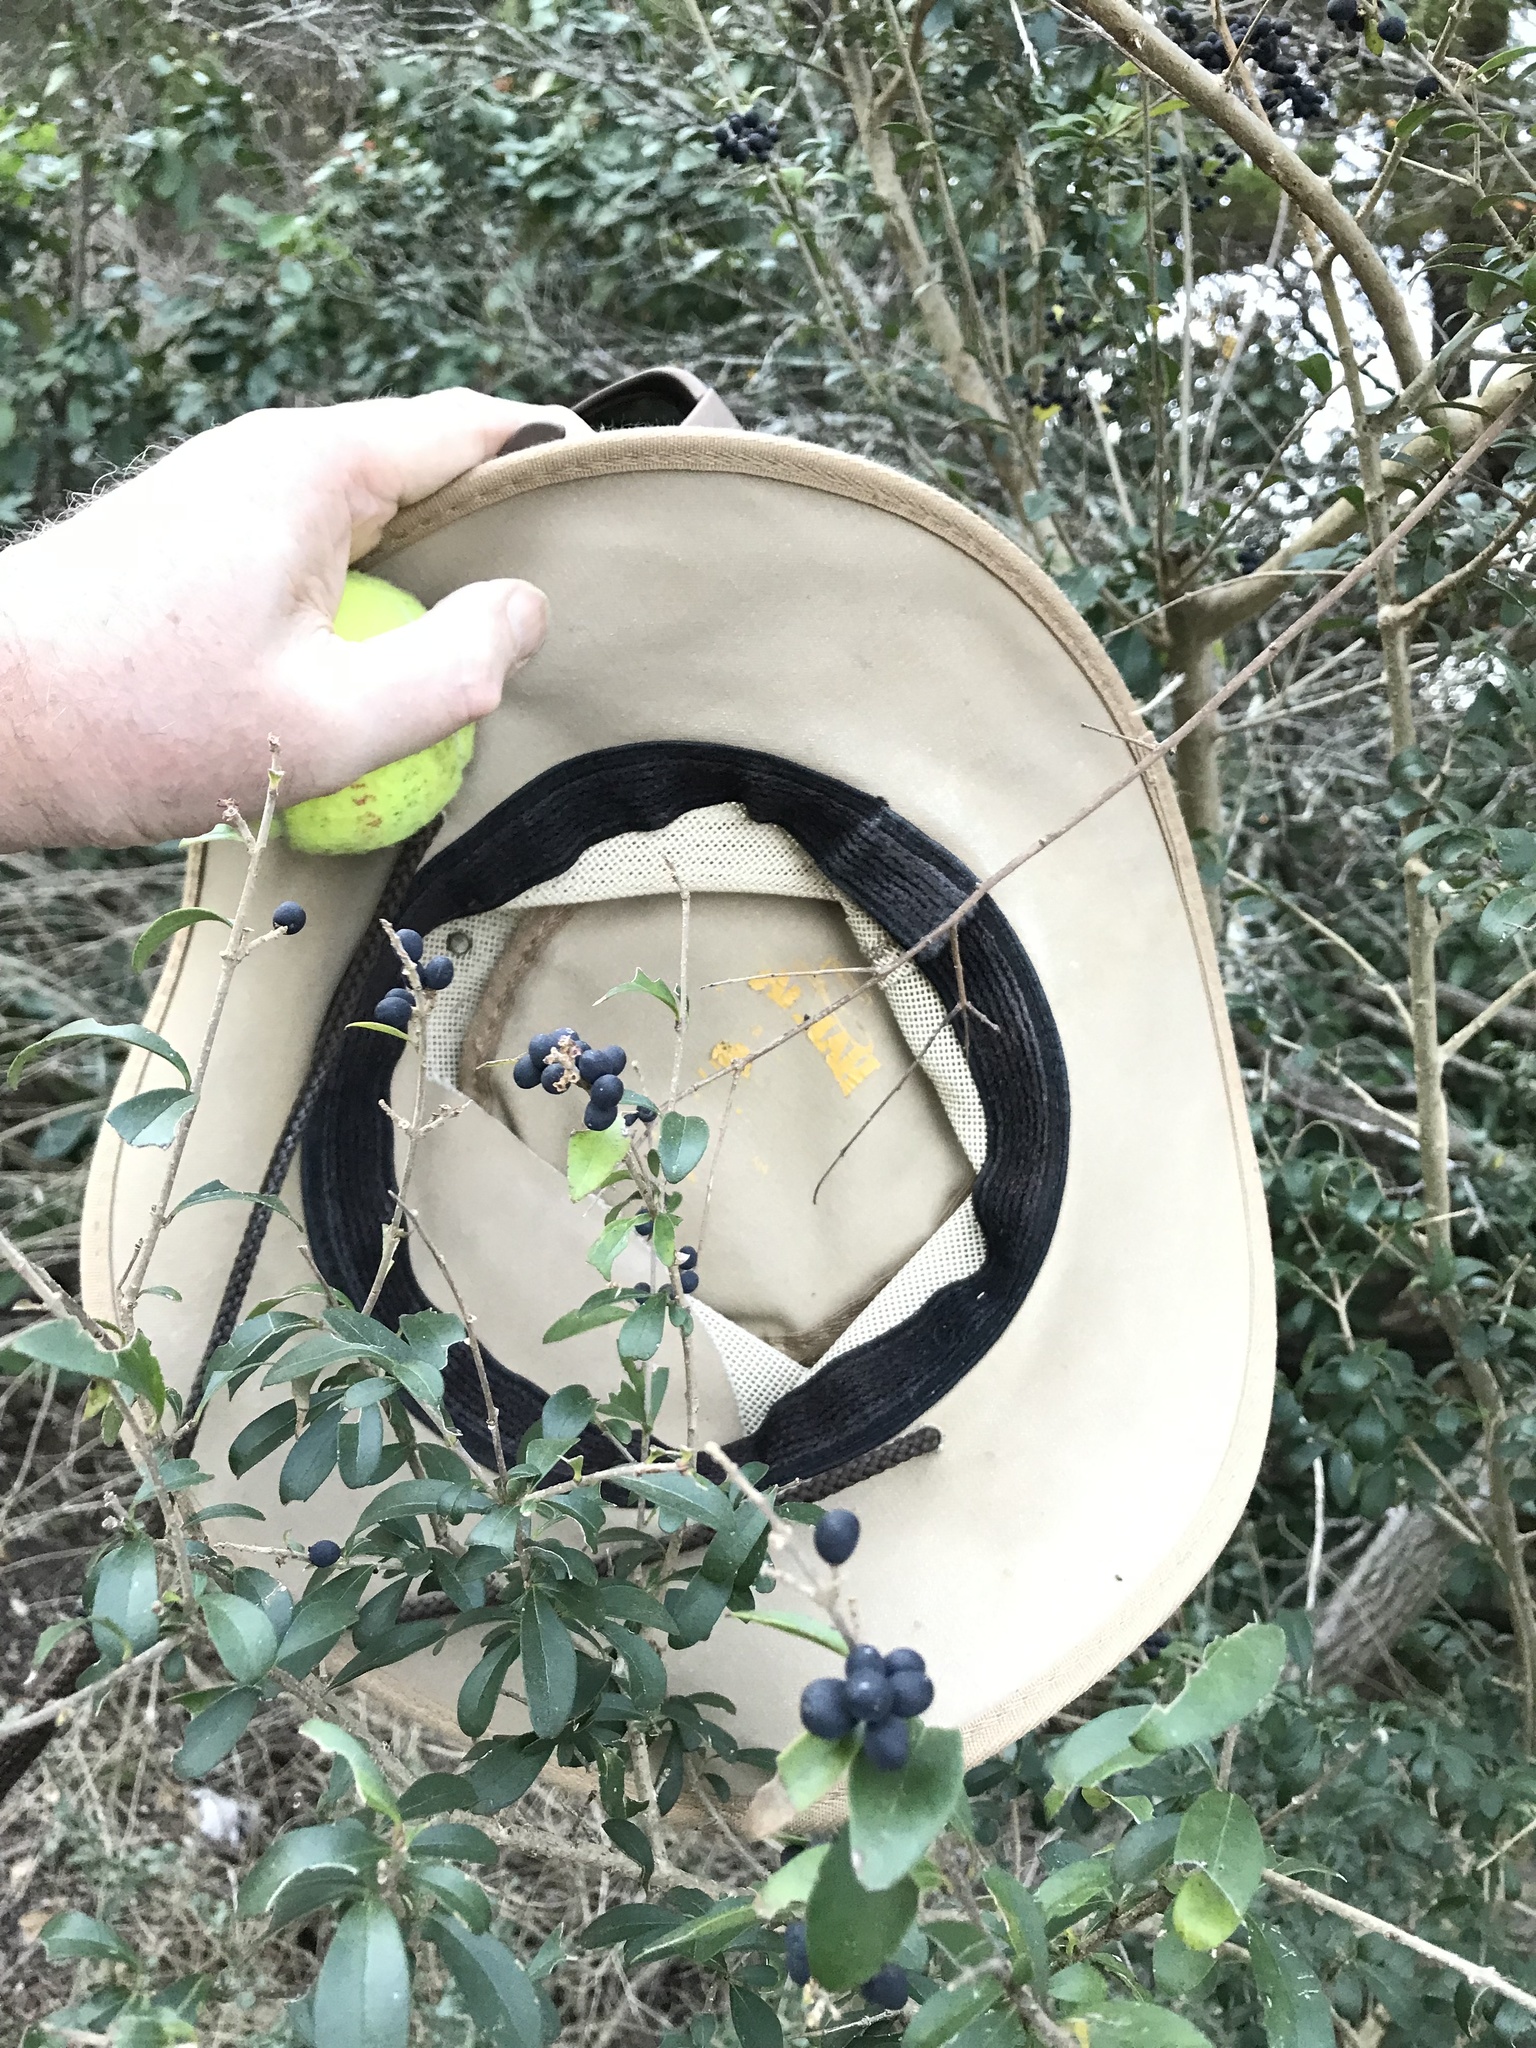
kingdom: Plantae
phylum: Tracheophyta
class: Magnoliopsida
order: Lamiales
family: Oleaceae
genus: Ligustrum
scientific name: Ligustrum quihoui
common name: Waxyleaf privet
